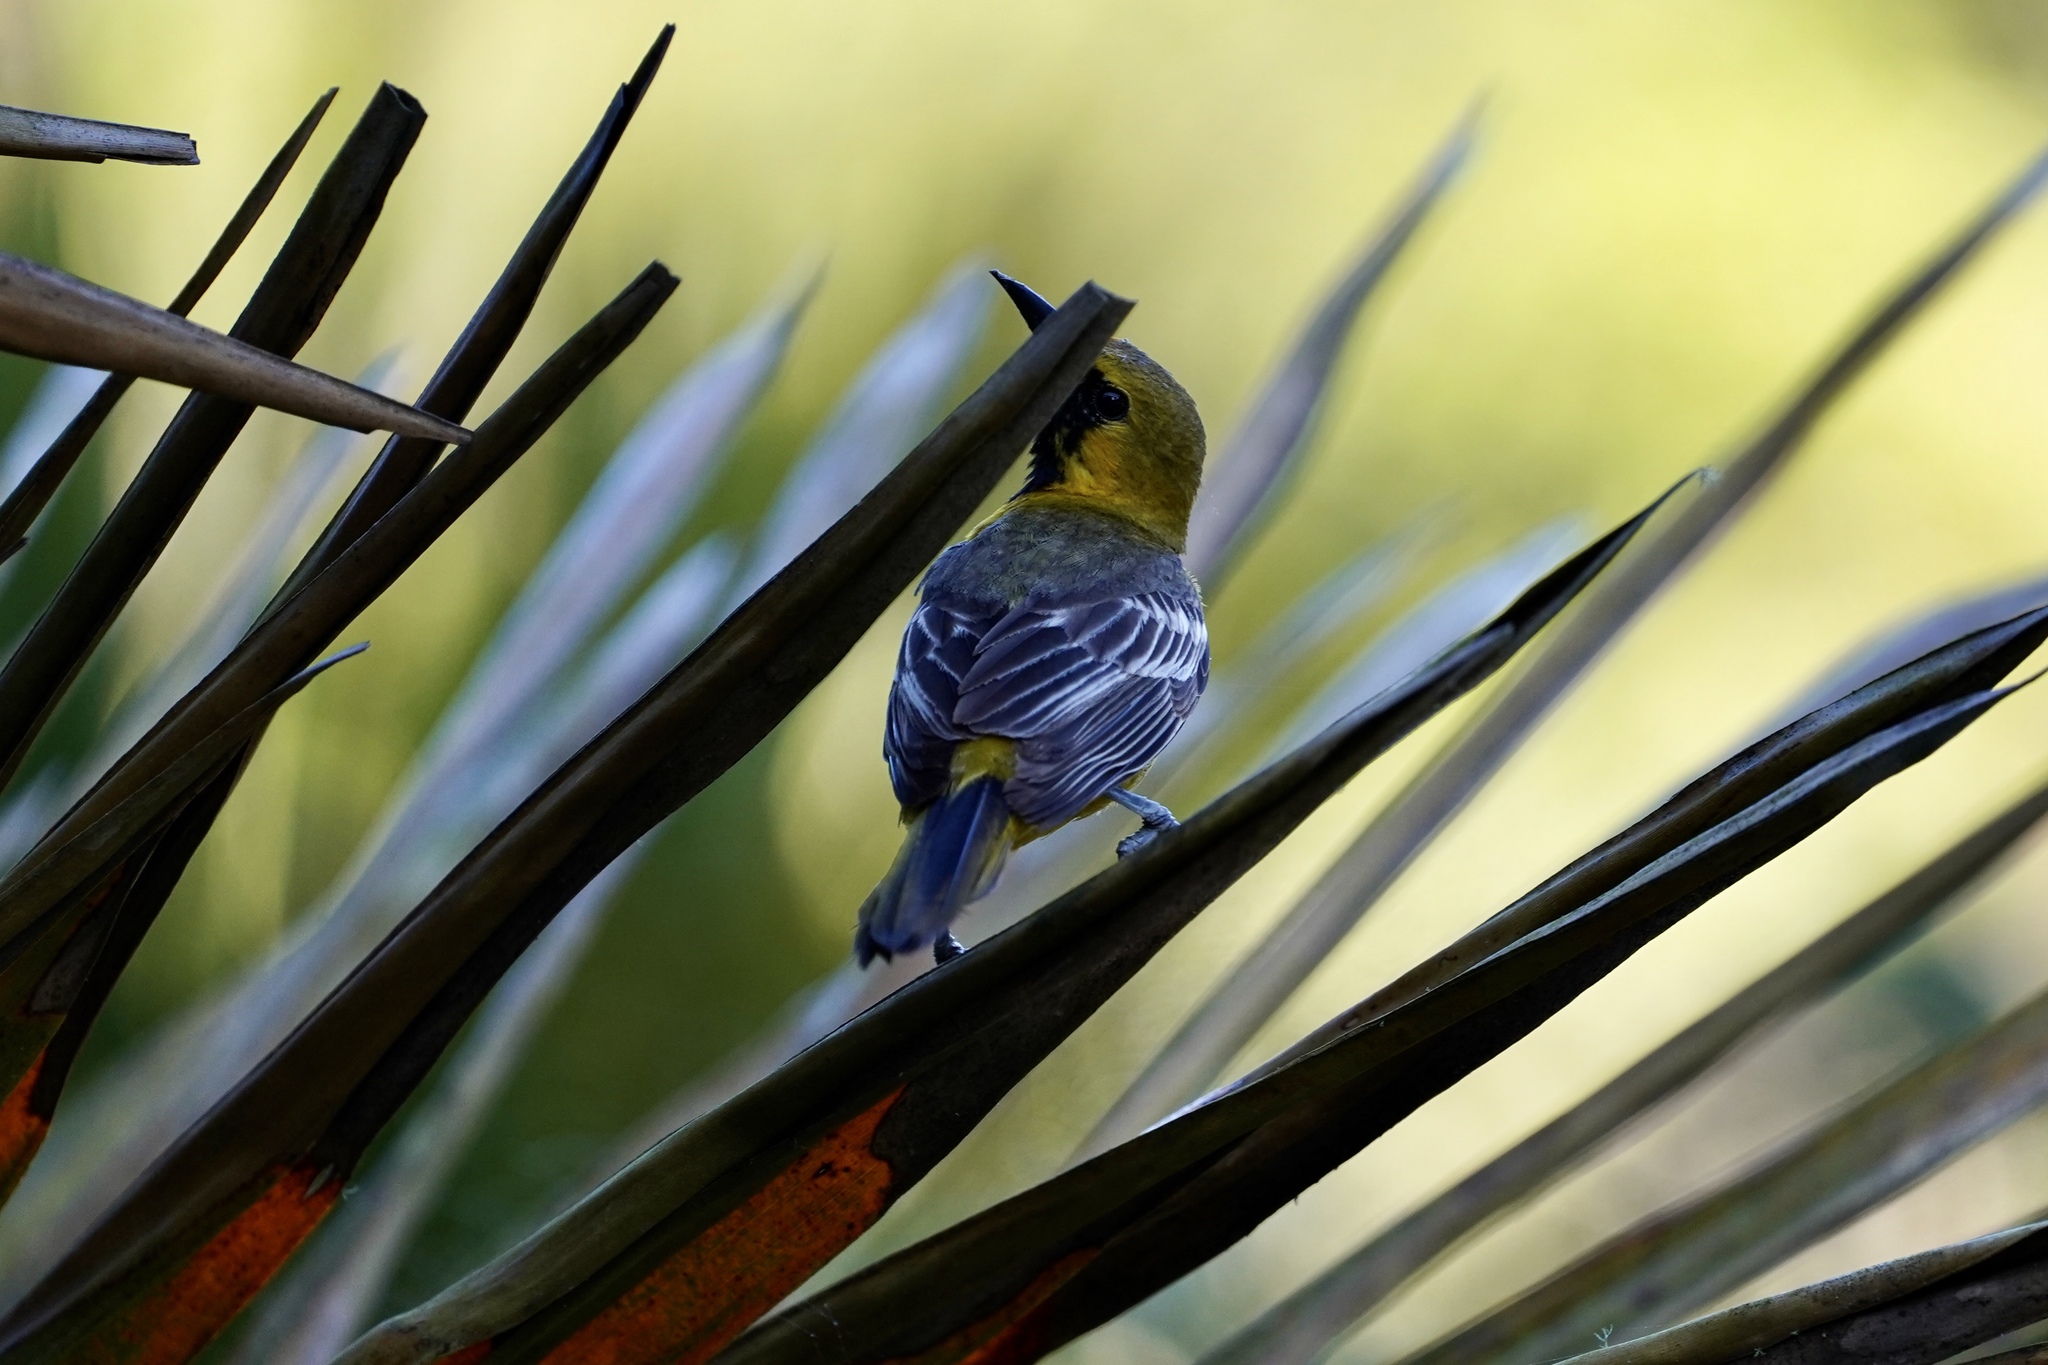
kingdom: Animalia
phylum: Chordata
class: Aves
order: Passeriformes
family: Icteridae
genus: Icterus
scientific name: Icterus cucullatus
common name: Hooded oriole
